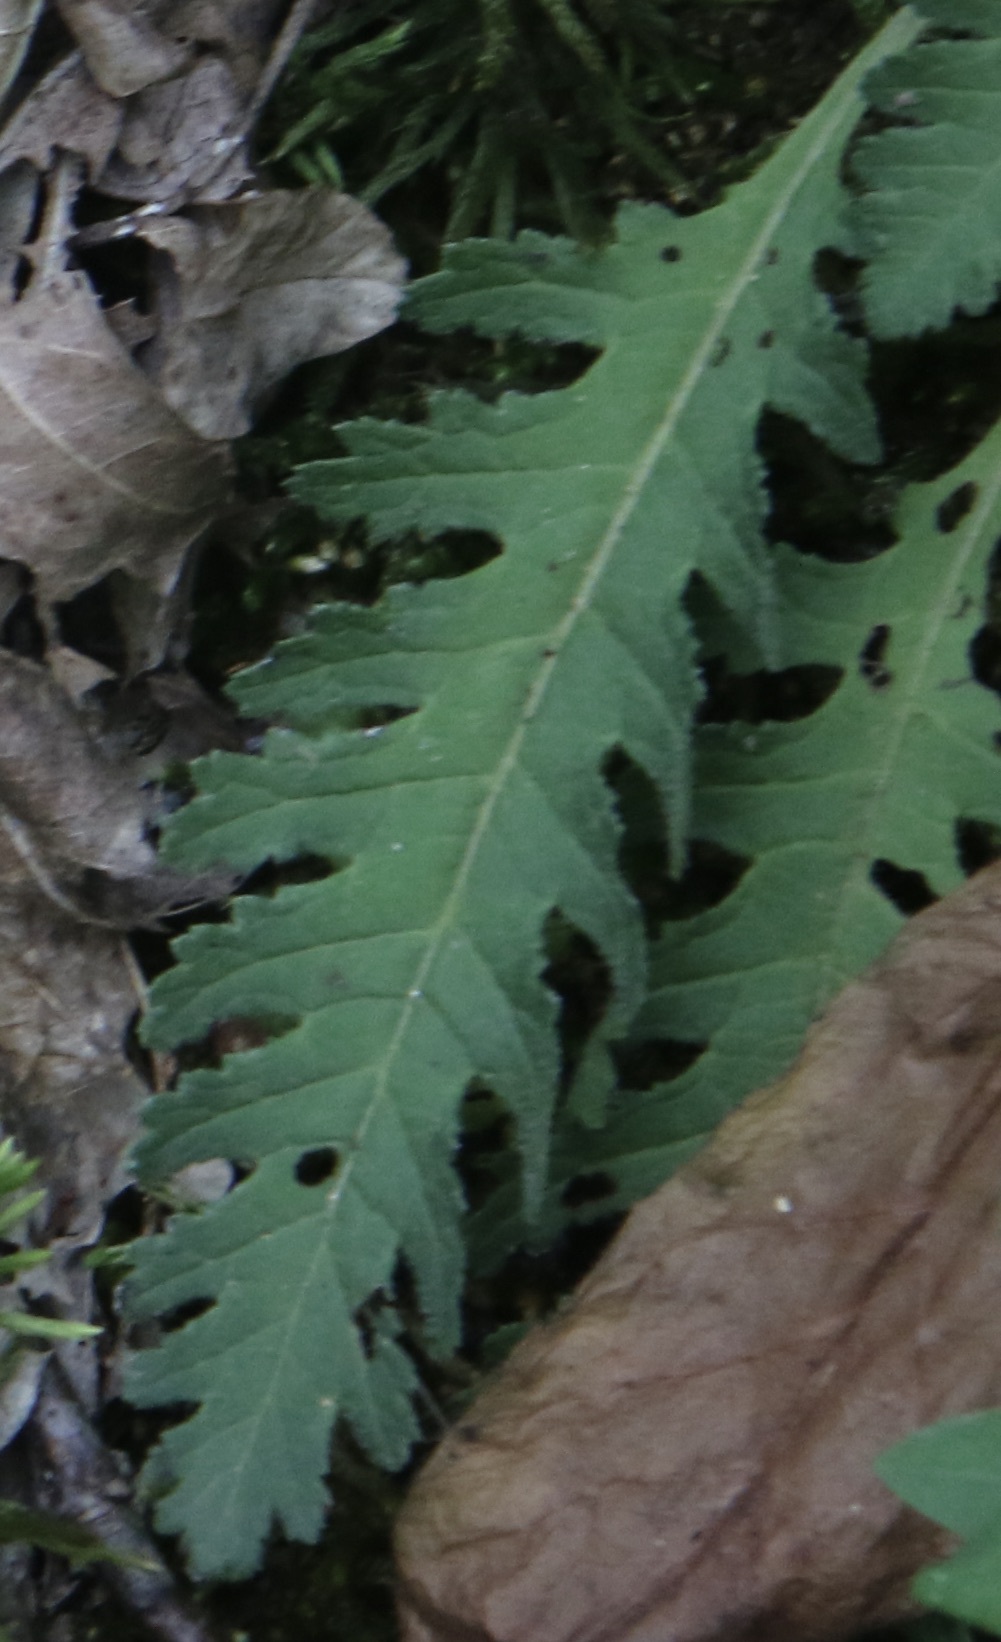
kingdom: Plantae
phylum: Tracheophyta
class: Magnoliopsida
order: Lamiales
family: Orobanchaceae
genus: Pedicularis
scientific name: Pedicularis canadensis
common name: Early lousewort
